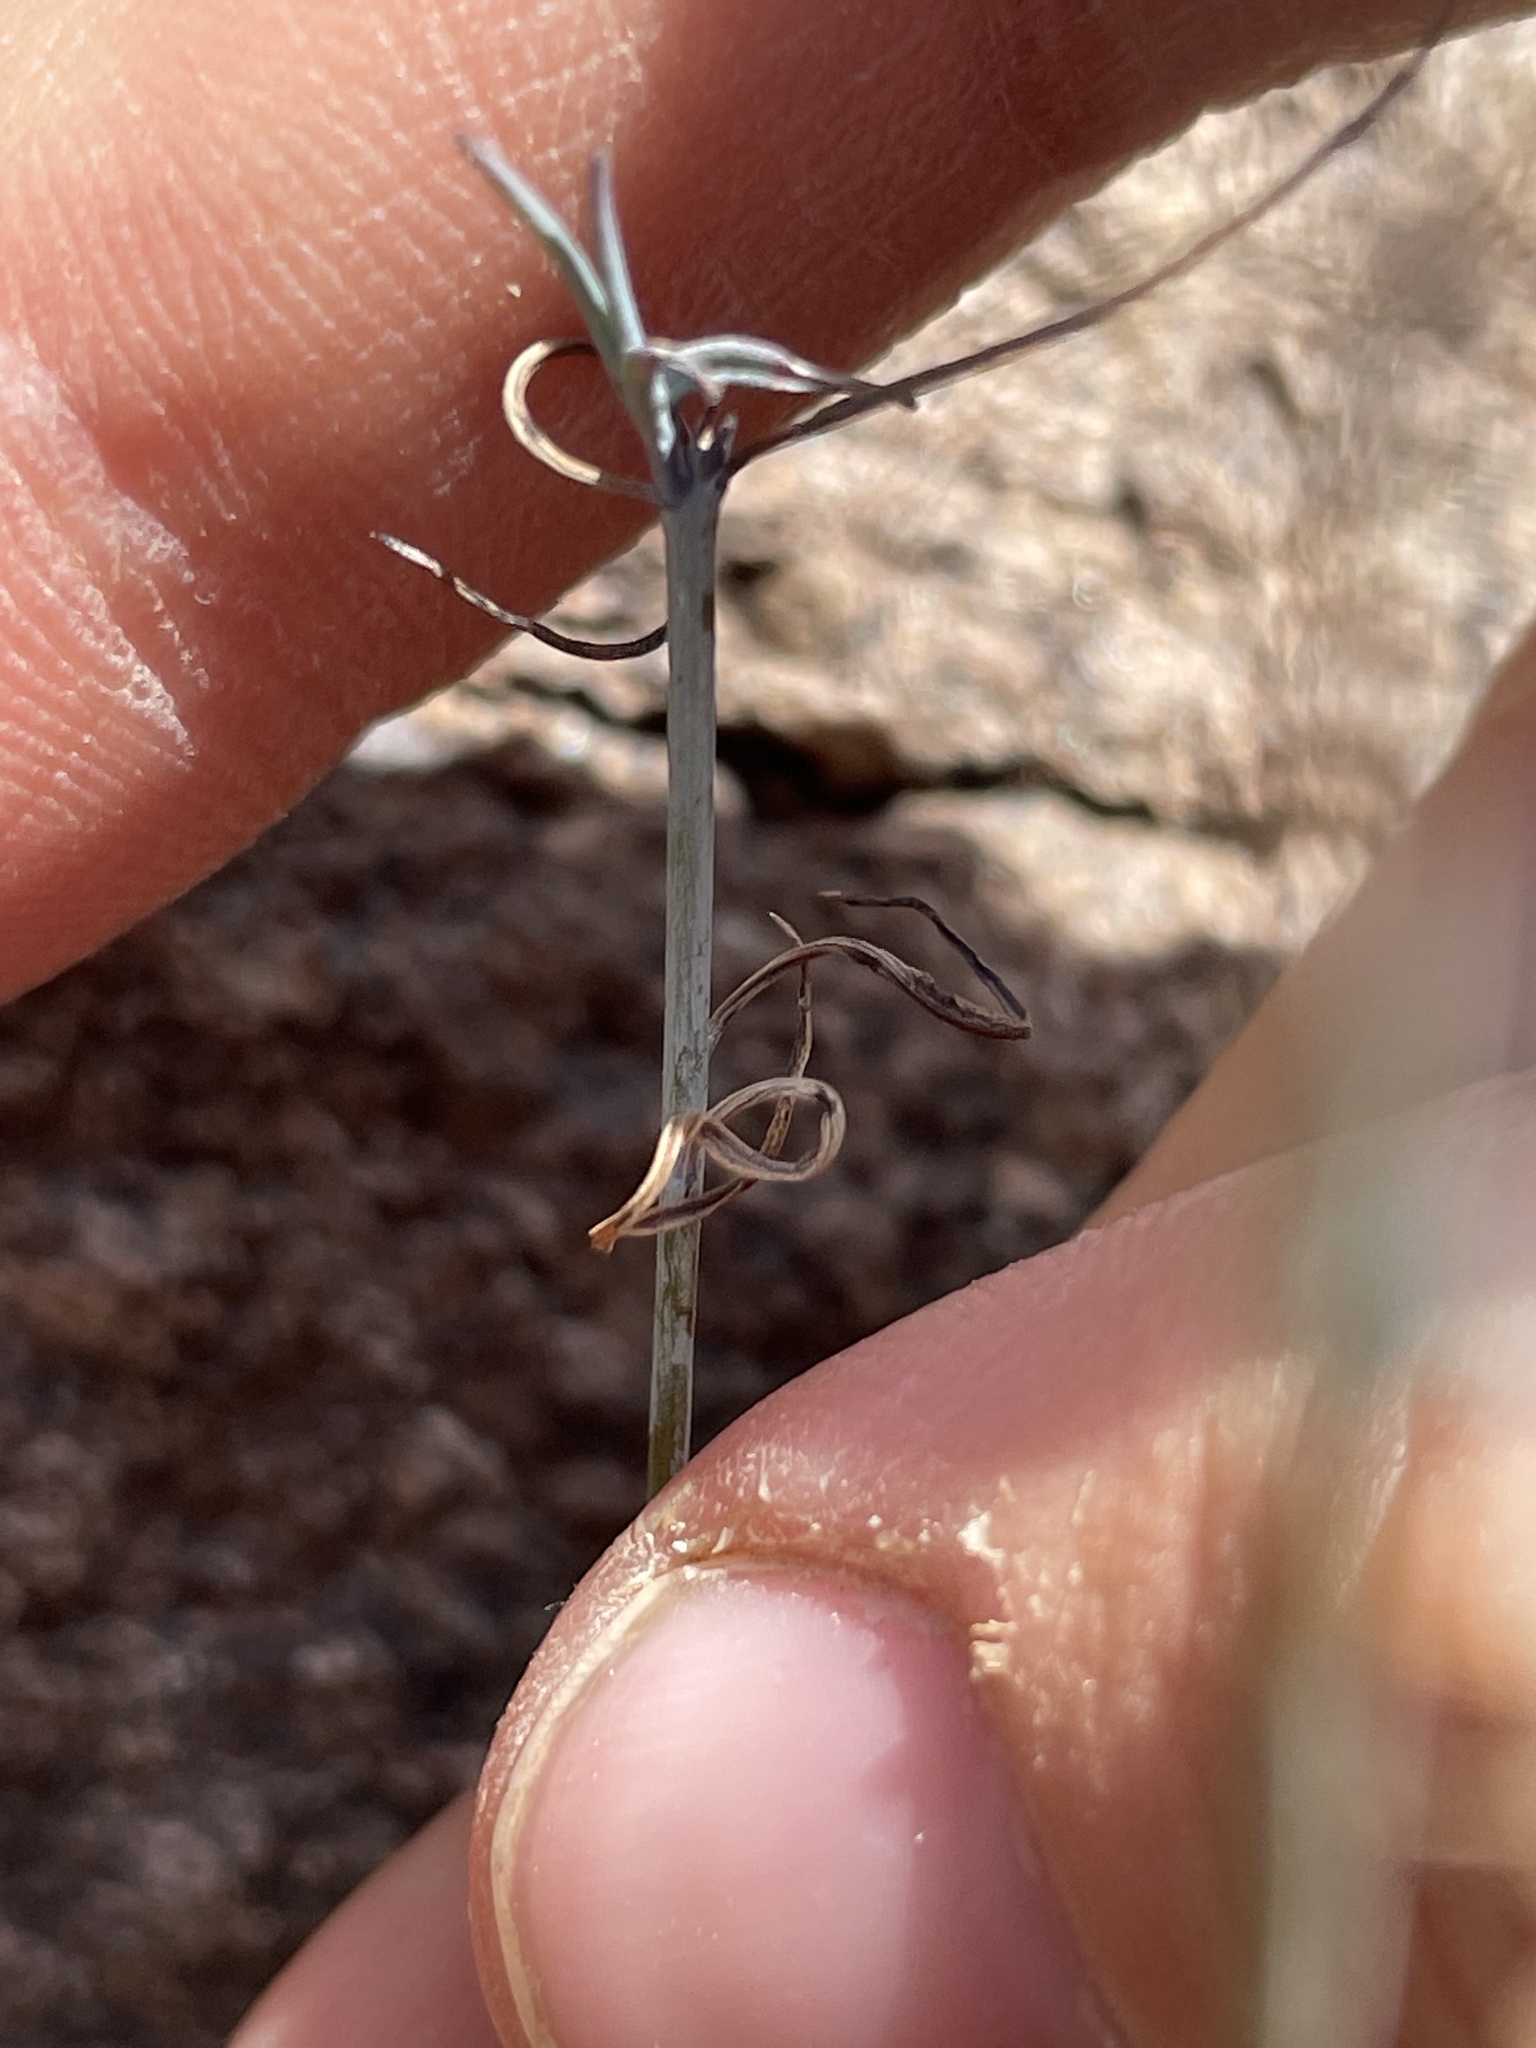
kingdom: Plantae
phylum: Tracheophyta
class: Magnoliopsida
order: Asterales
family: Asteraceae
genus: Porophyllum
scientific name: Porophyllum gracile
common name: Odora
